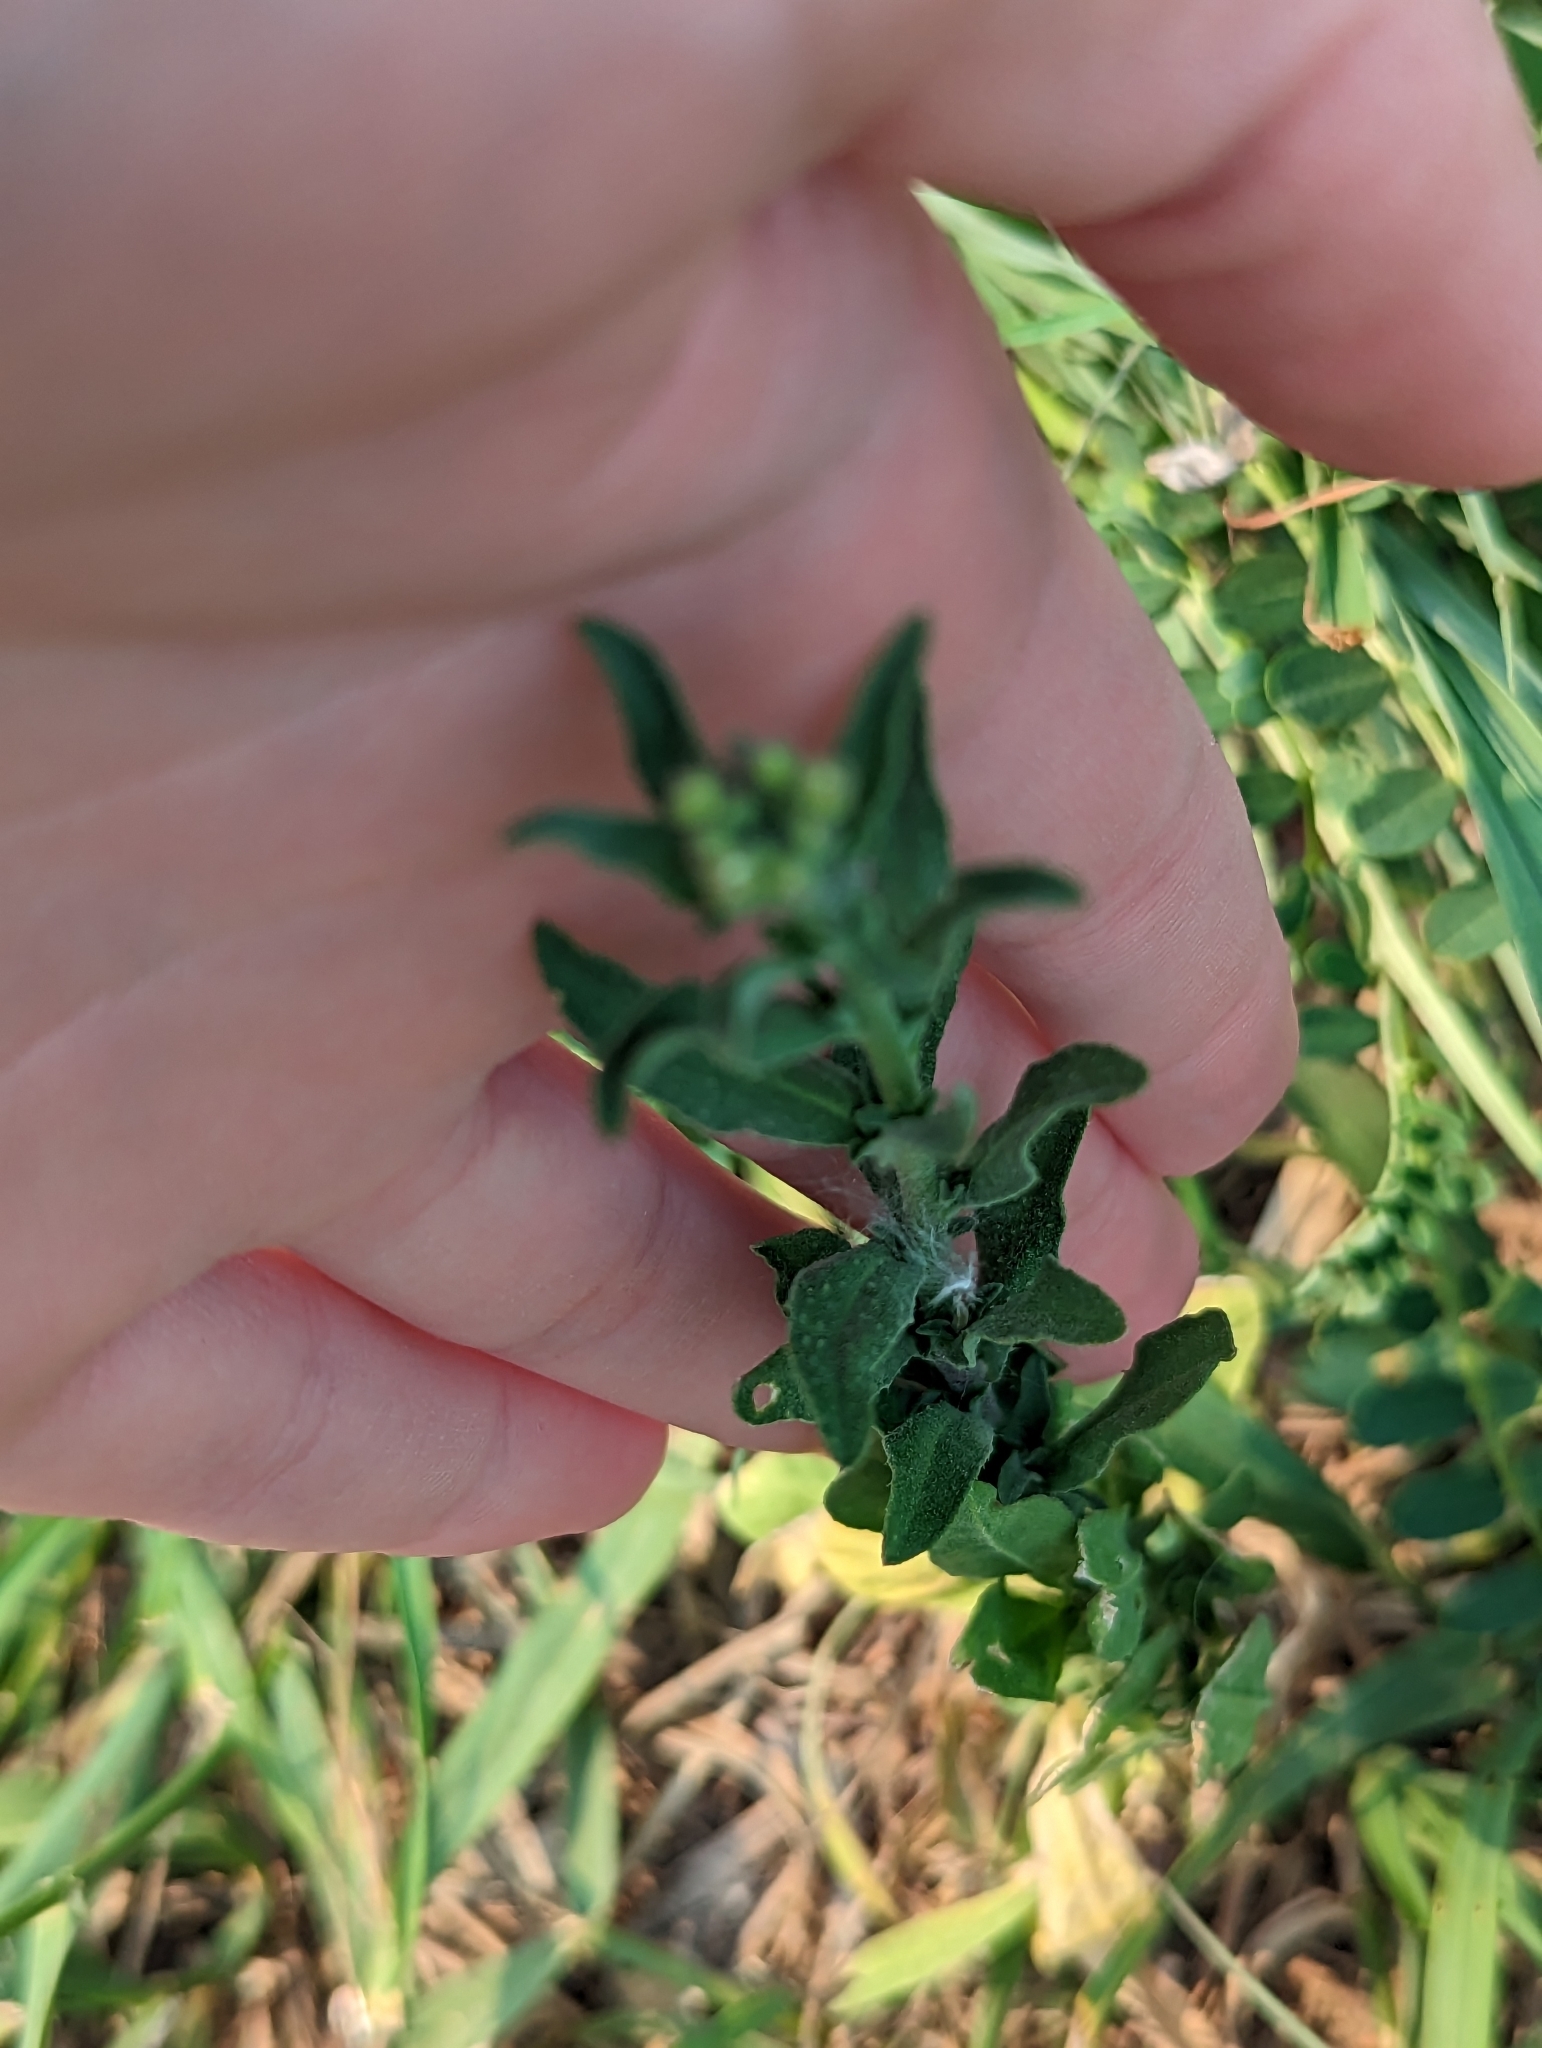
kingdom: Plantae
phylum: Tracheophyta
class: Magnoliopsida
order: Brassicales
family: Brassicaceae
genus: Berteroa
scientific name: Berteroa incana
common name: Hoary alison
